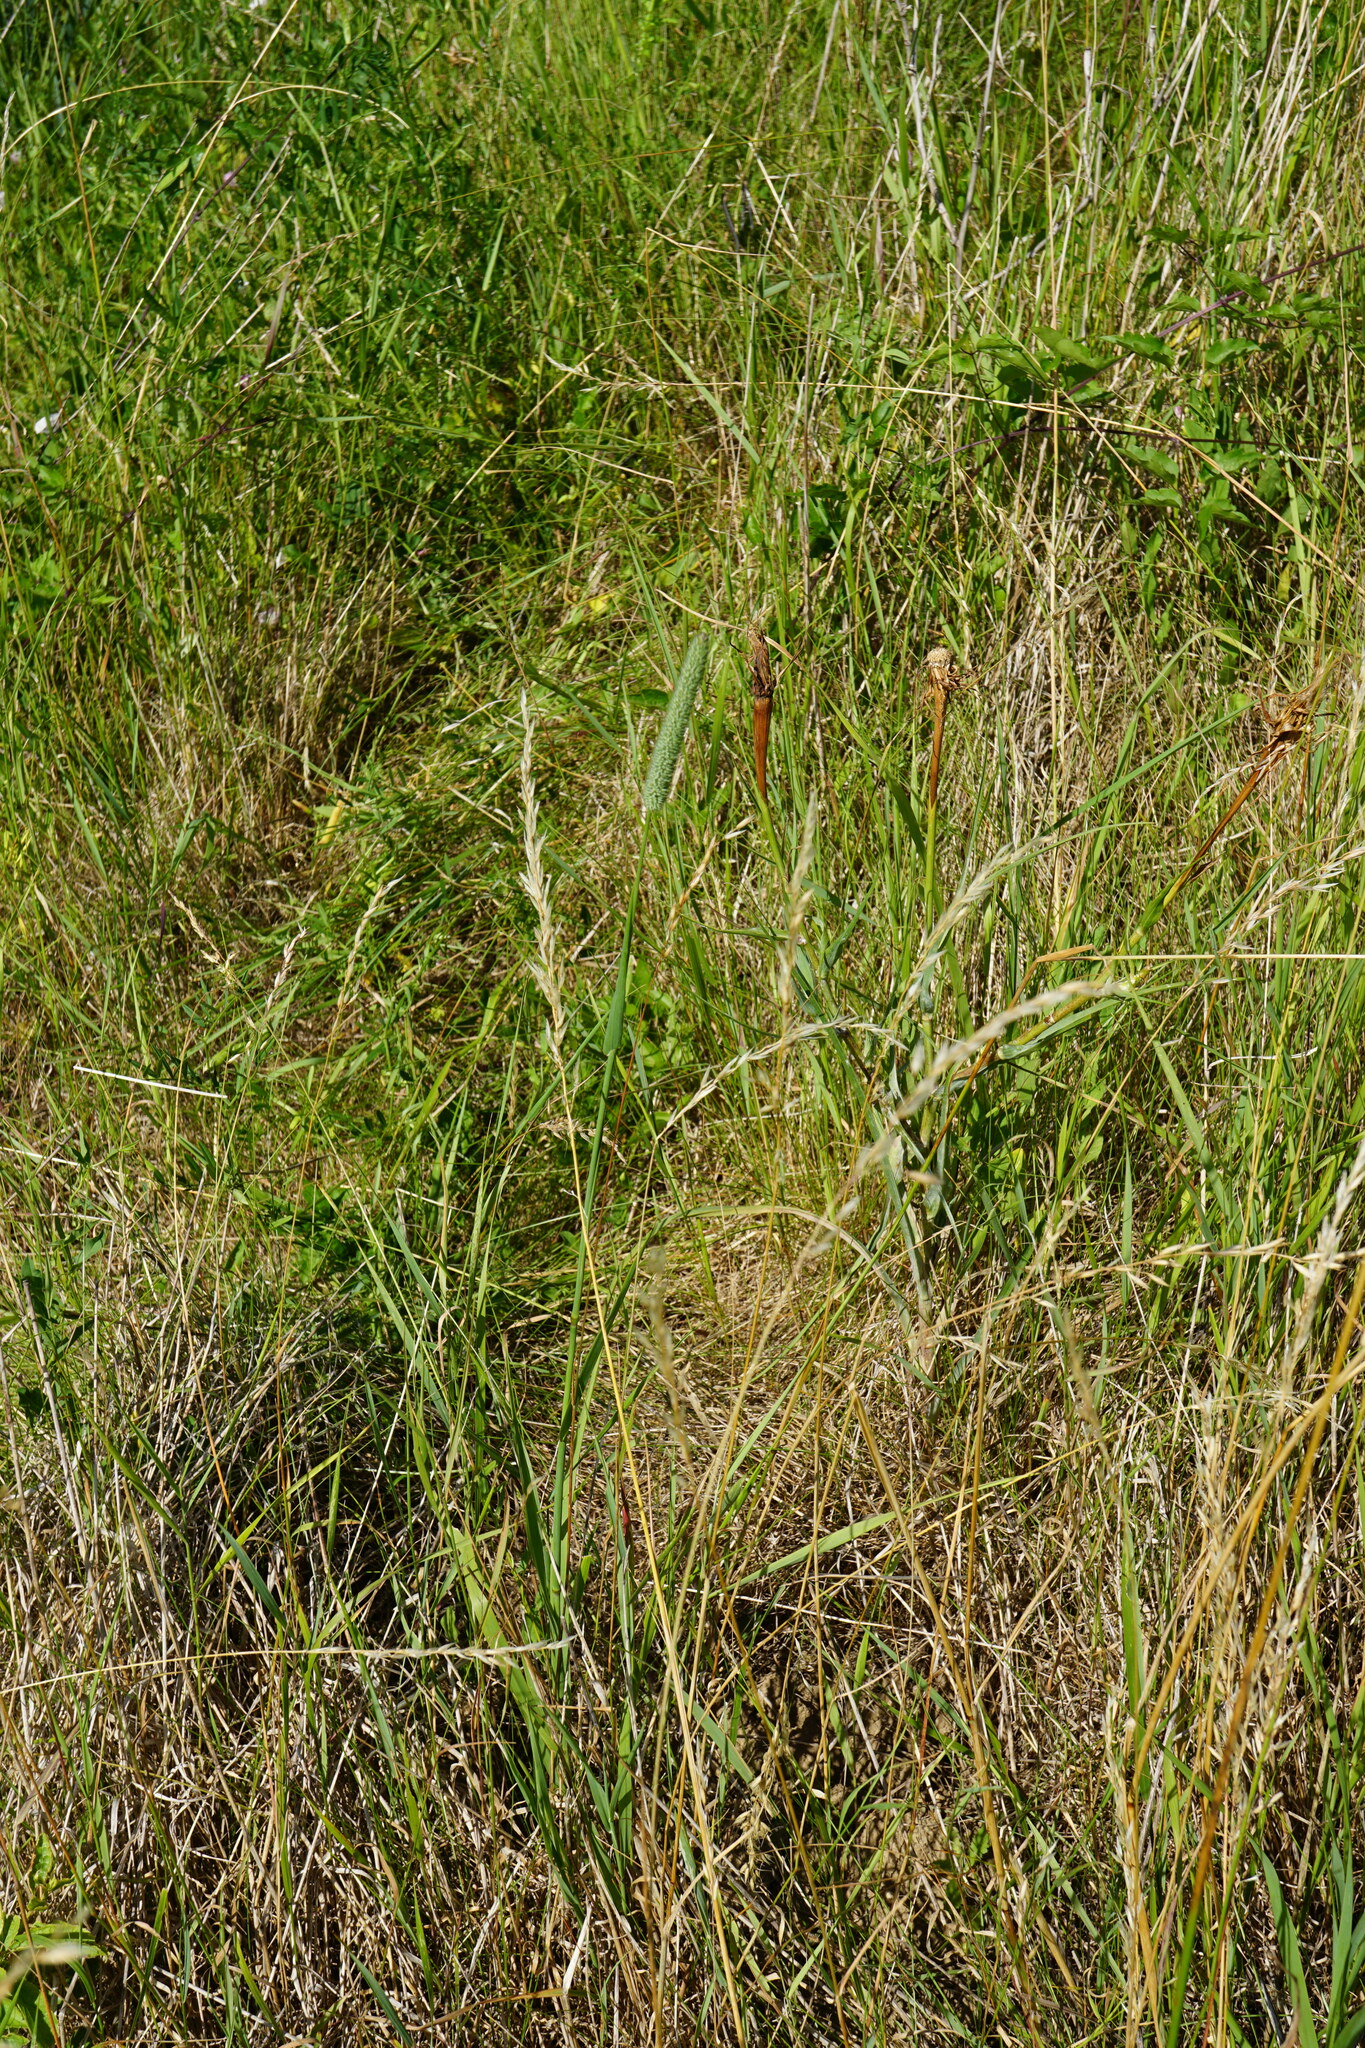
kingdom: Plantae
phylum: Tracheophyta
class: Liliopsida
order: Poales
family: Poaceae
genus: Phleum
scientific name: Phleum pratense
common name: Timothy grass
